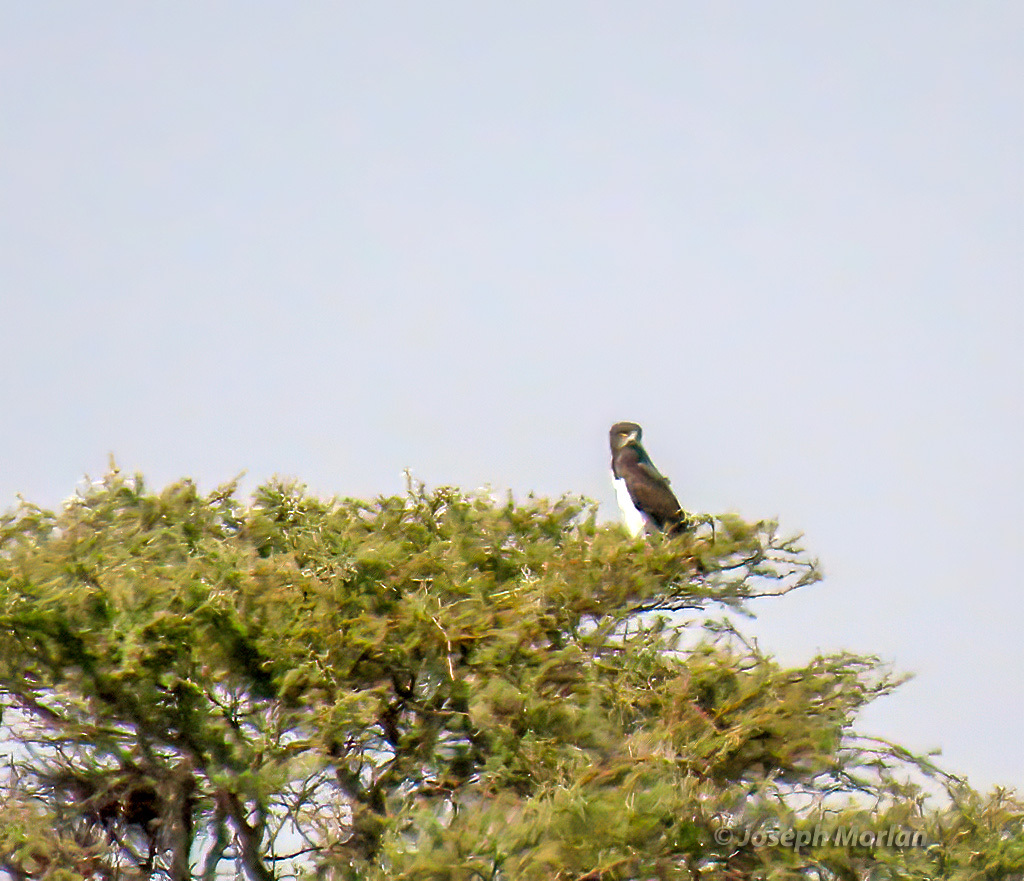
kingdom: Animalia
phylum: Chordata
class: Aves
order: Accipitriformes
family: Accipitridae
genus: Circaetus
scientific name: Circaetus pectoralis
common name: Black-chested snake eagle
